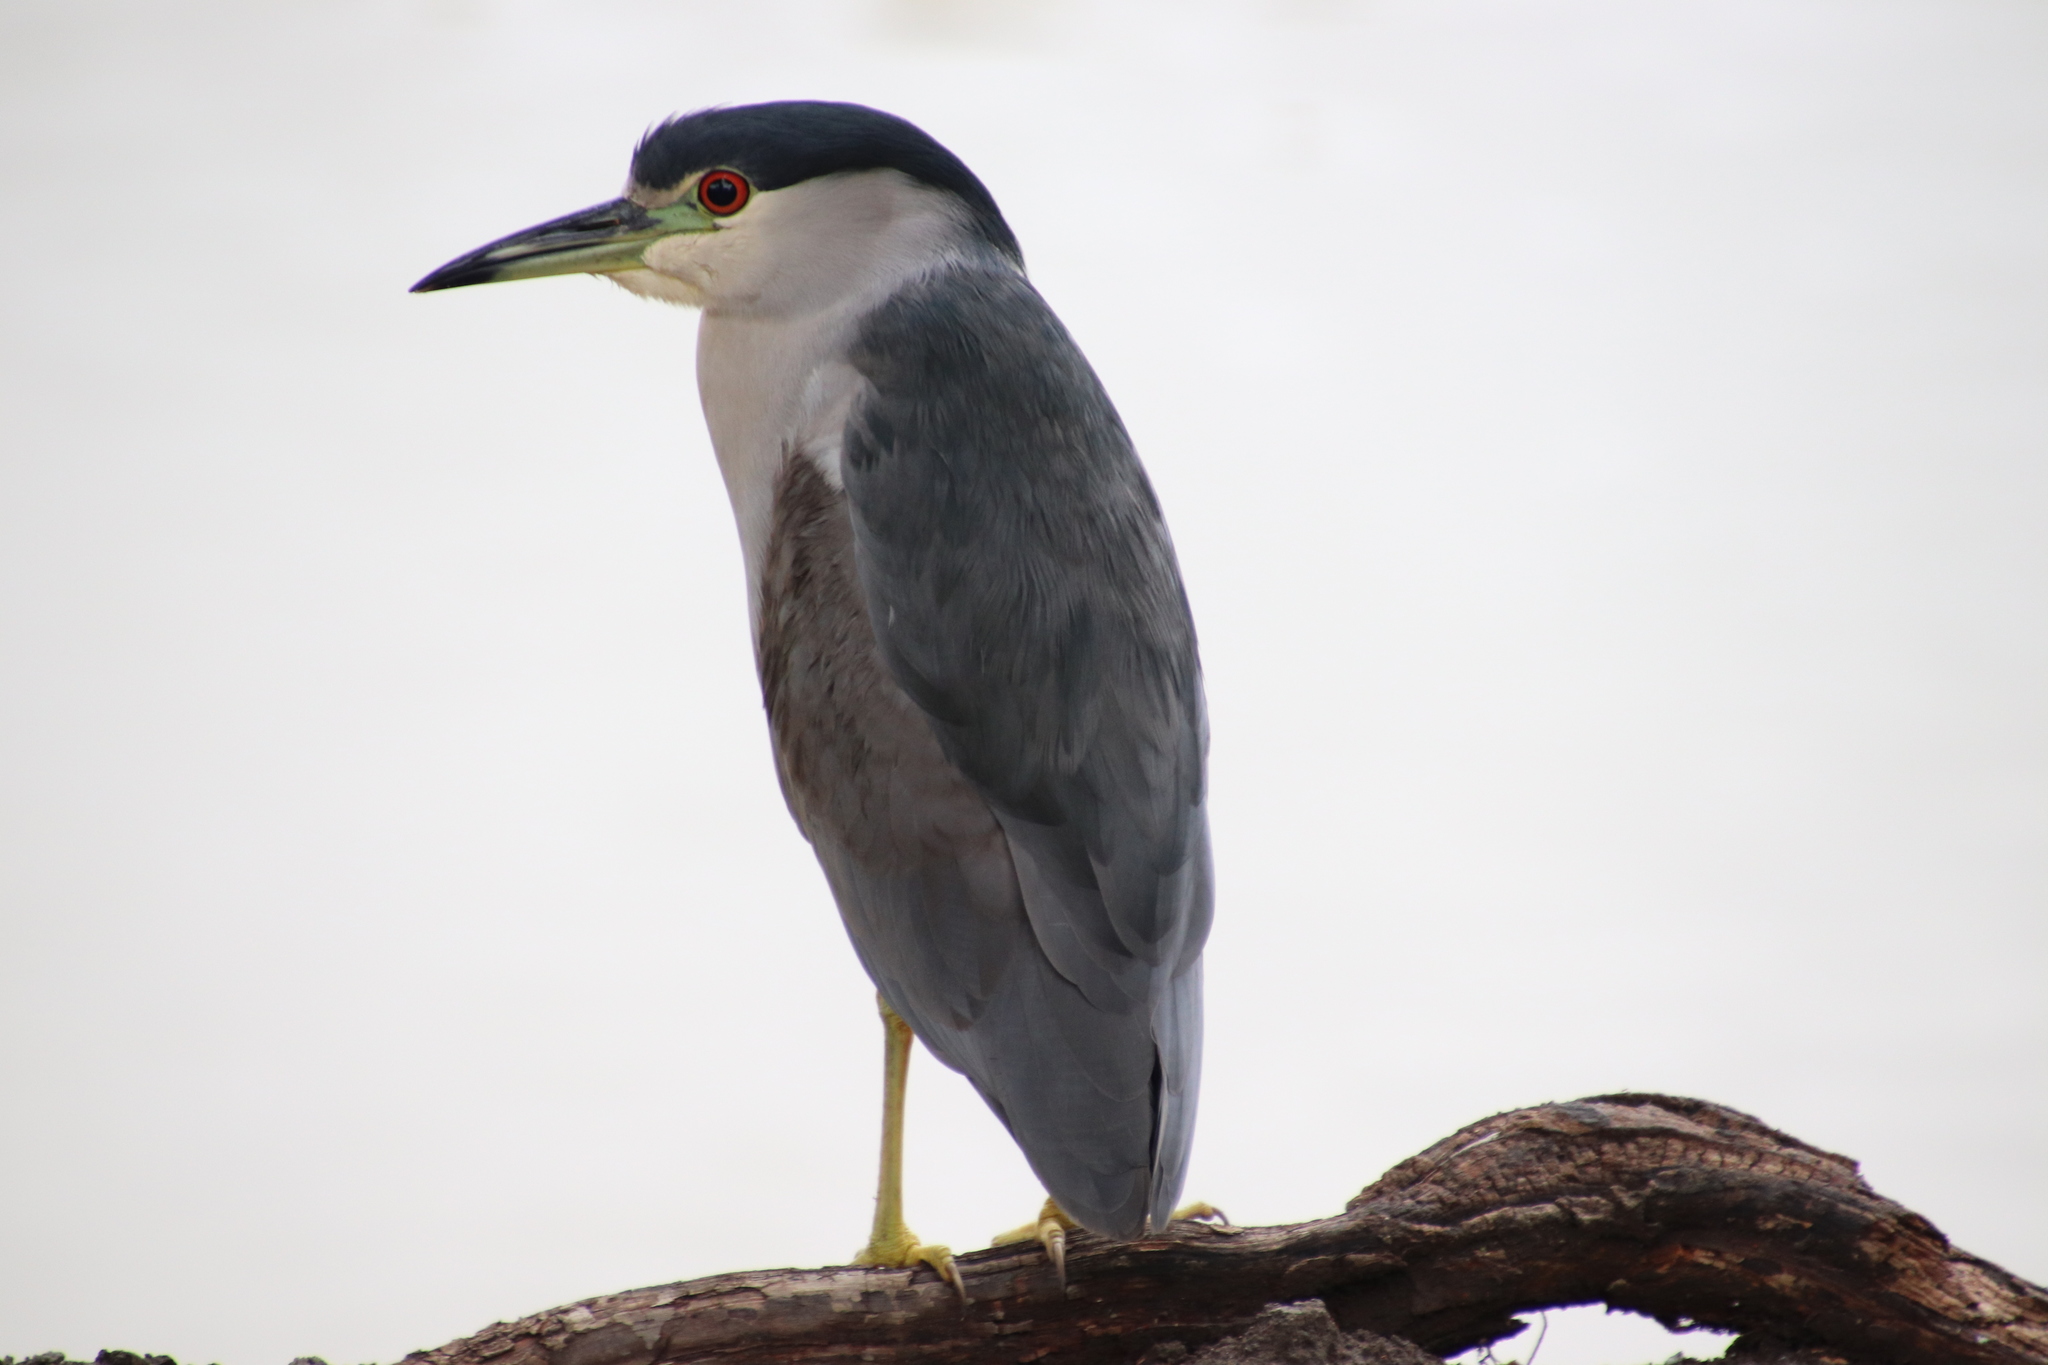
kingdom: Animalia
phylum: Chordata
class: Aves
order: Pelecaniformes
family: Ardeidae
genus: Nycticorax
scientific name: Nycticorax nycticorax
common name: Black-crowned night heron
